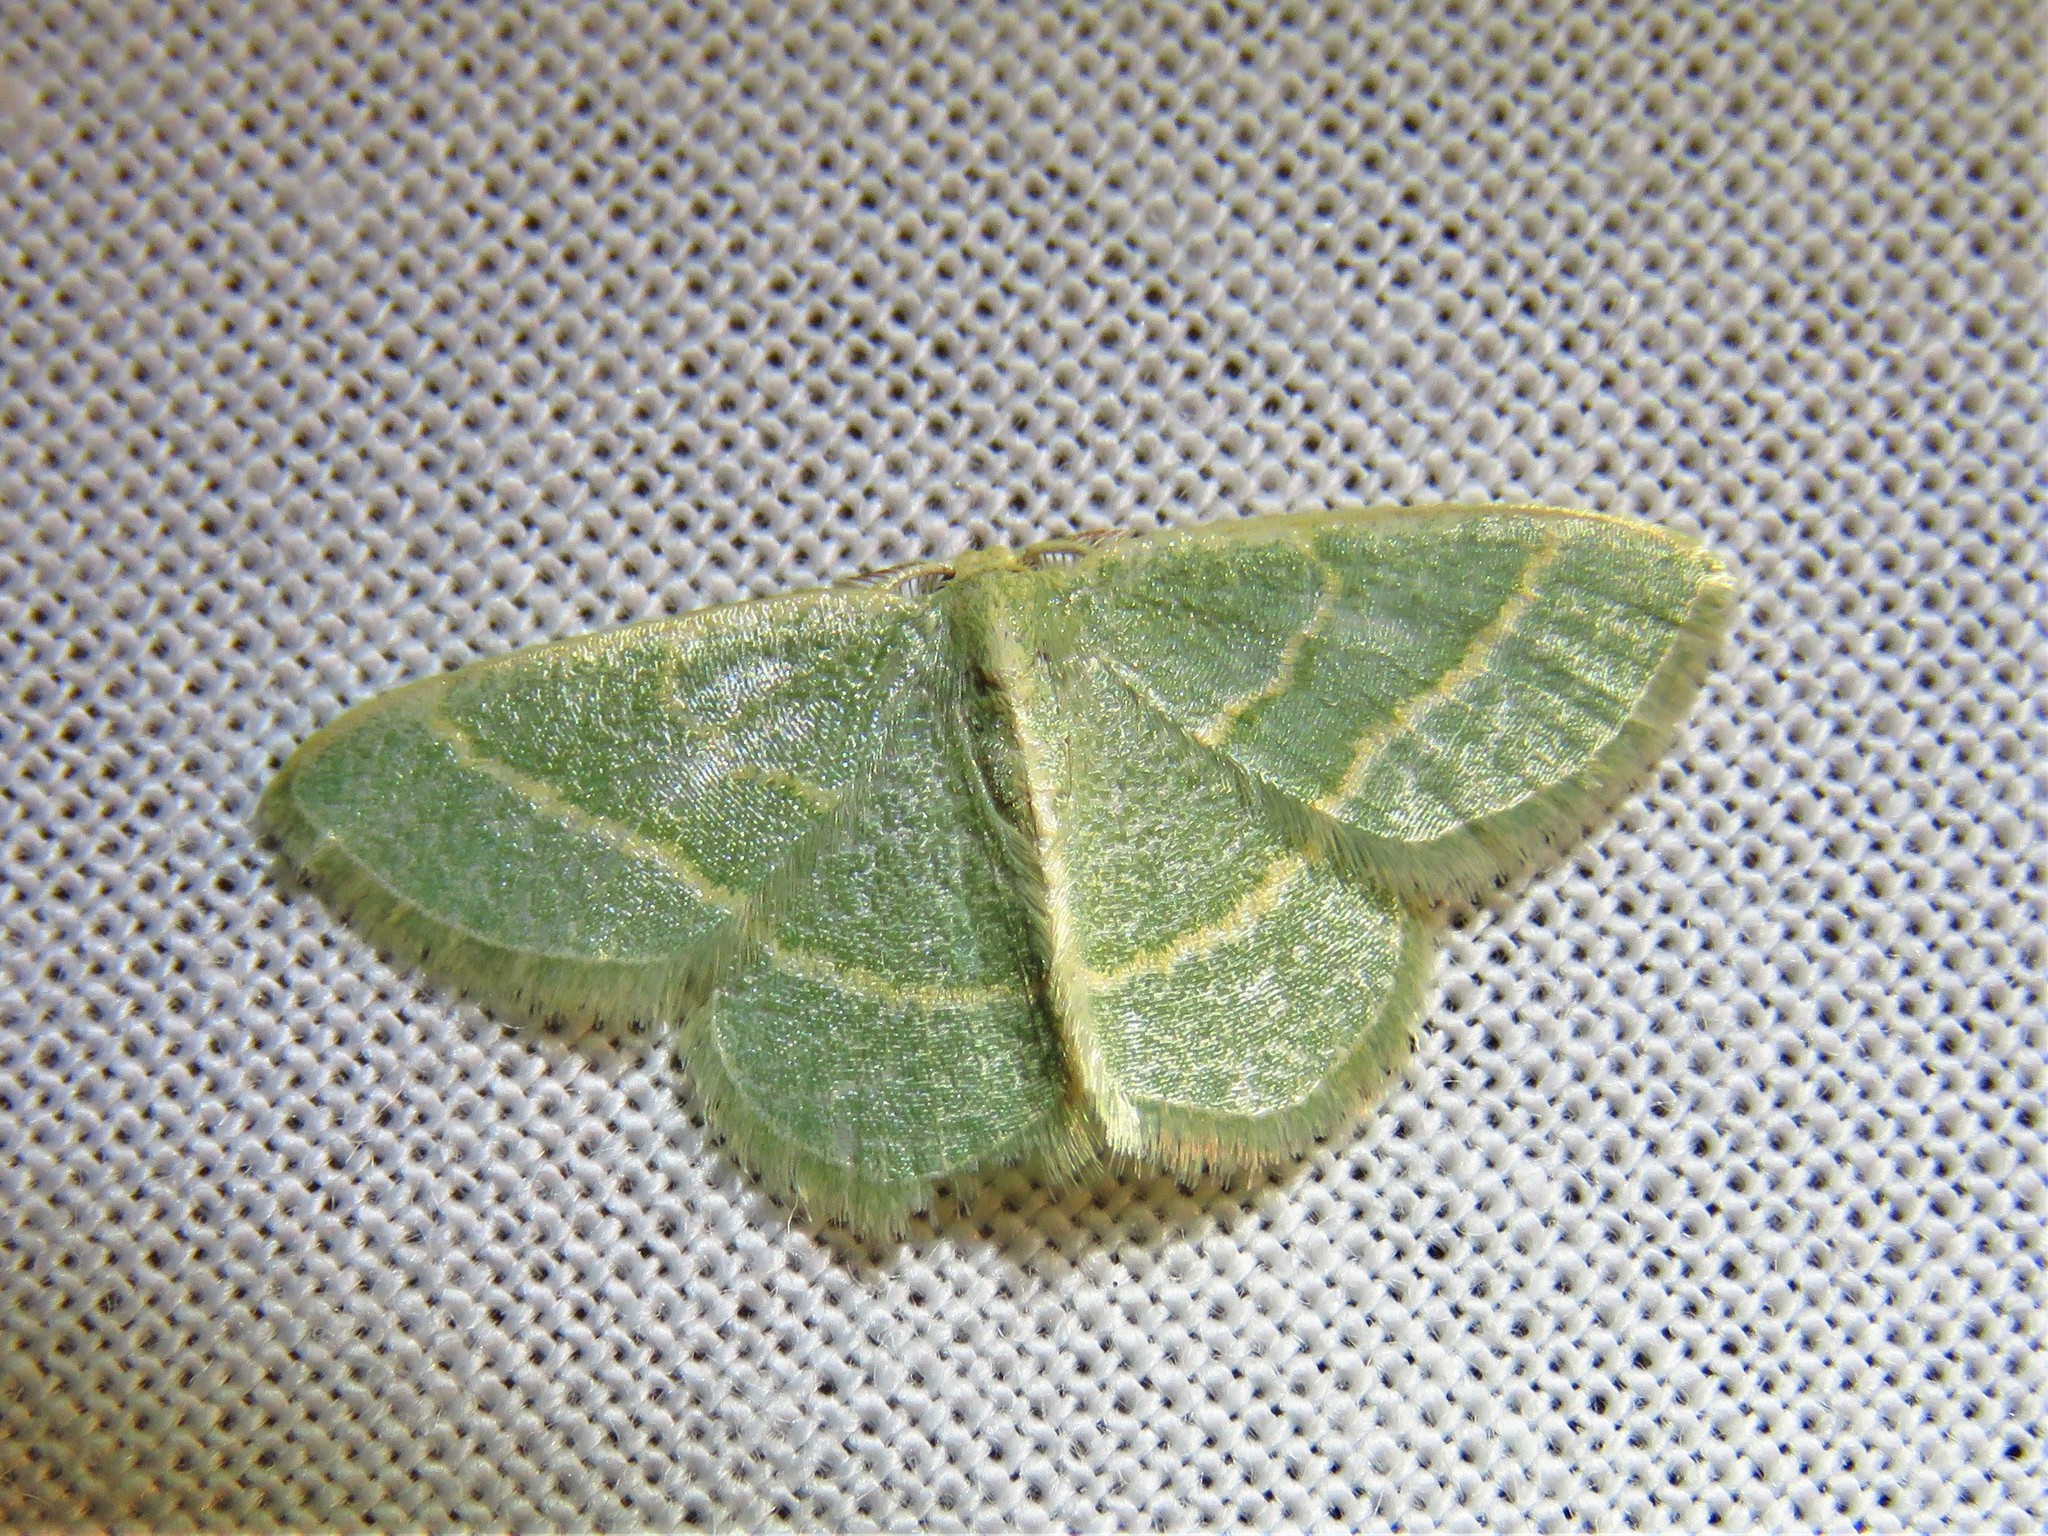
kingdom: Animalia
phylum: Arthropoda
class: Insecta
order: Lepidoptera
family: Geometridae
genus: Chlorochlamys
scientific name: Chlorochlamys chloroleucaria
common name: Blackberry looper
